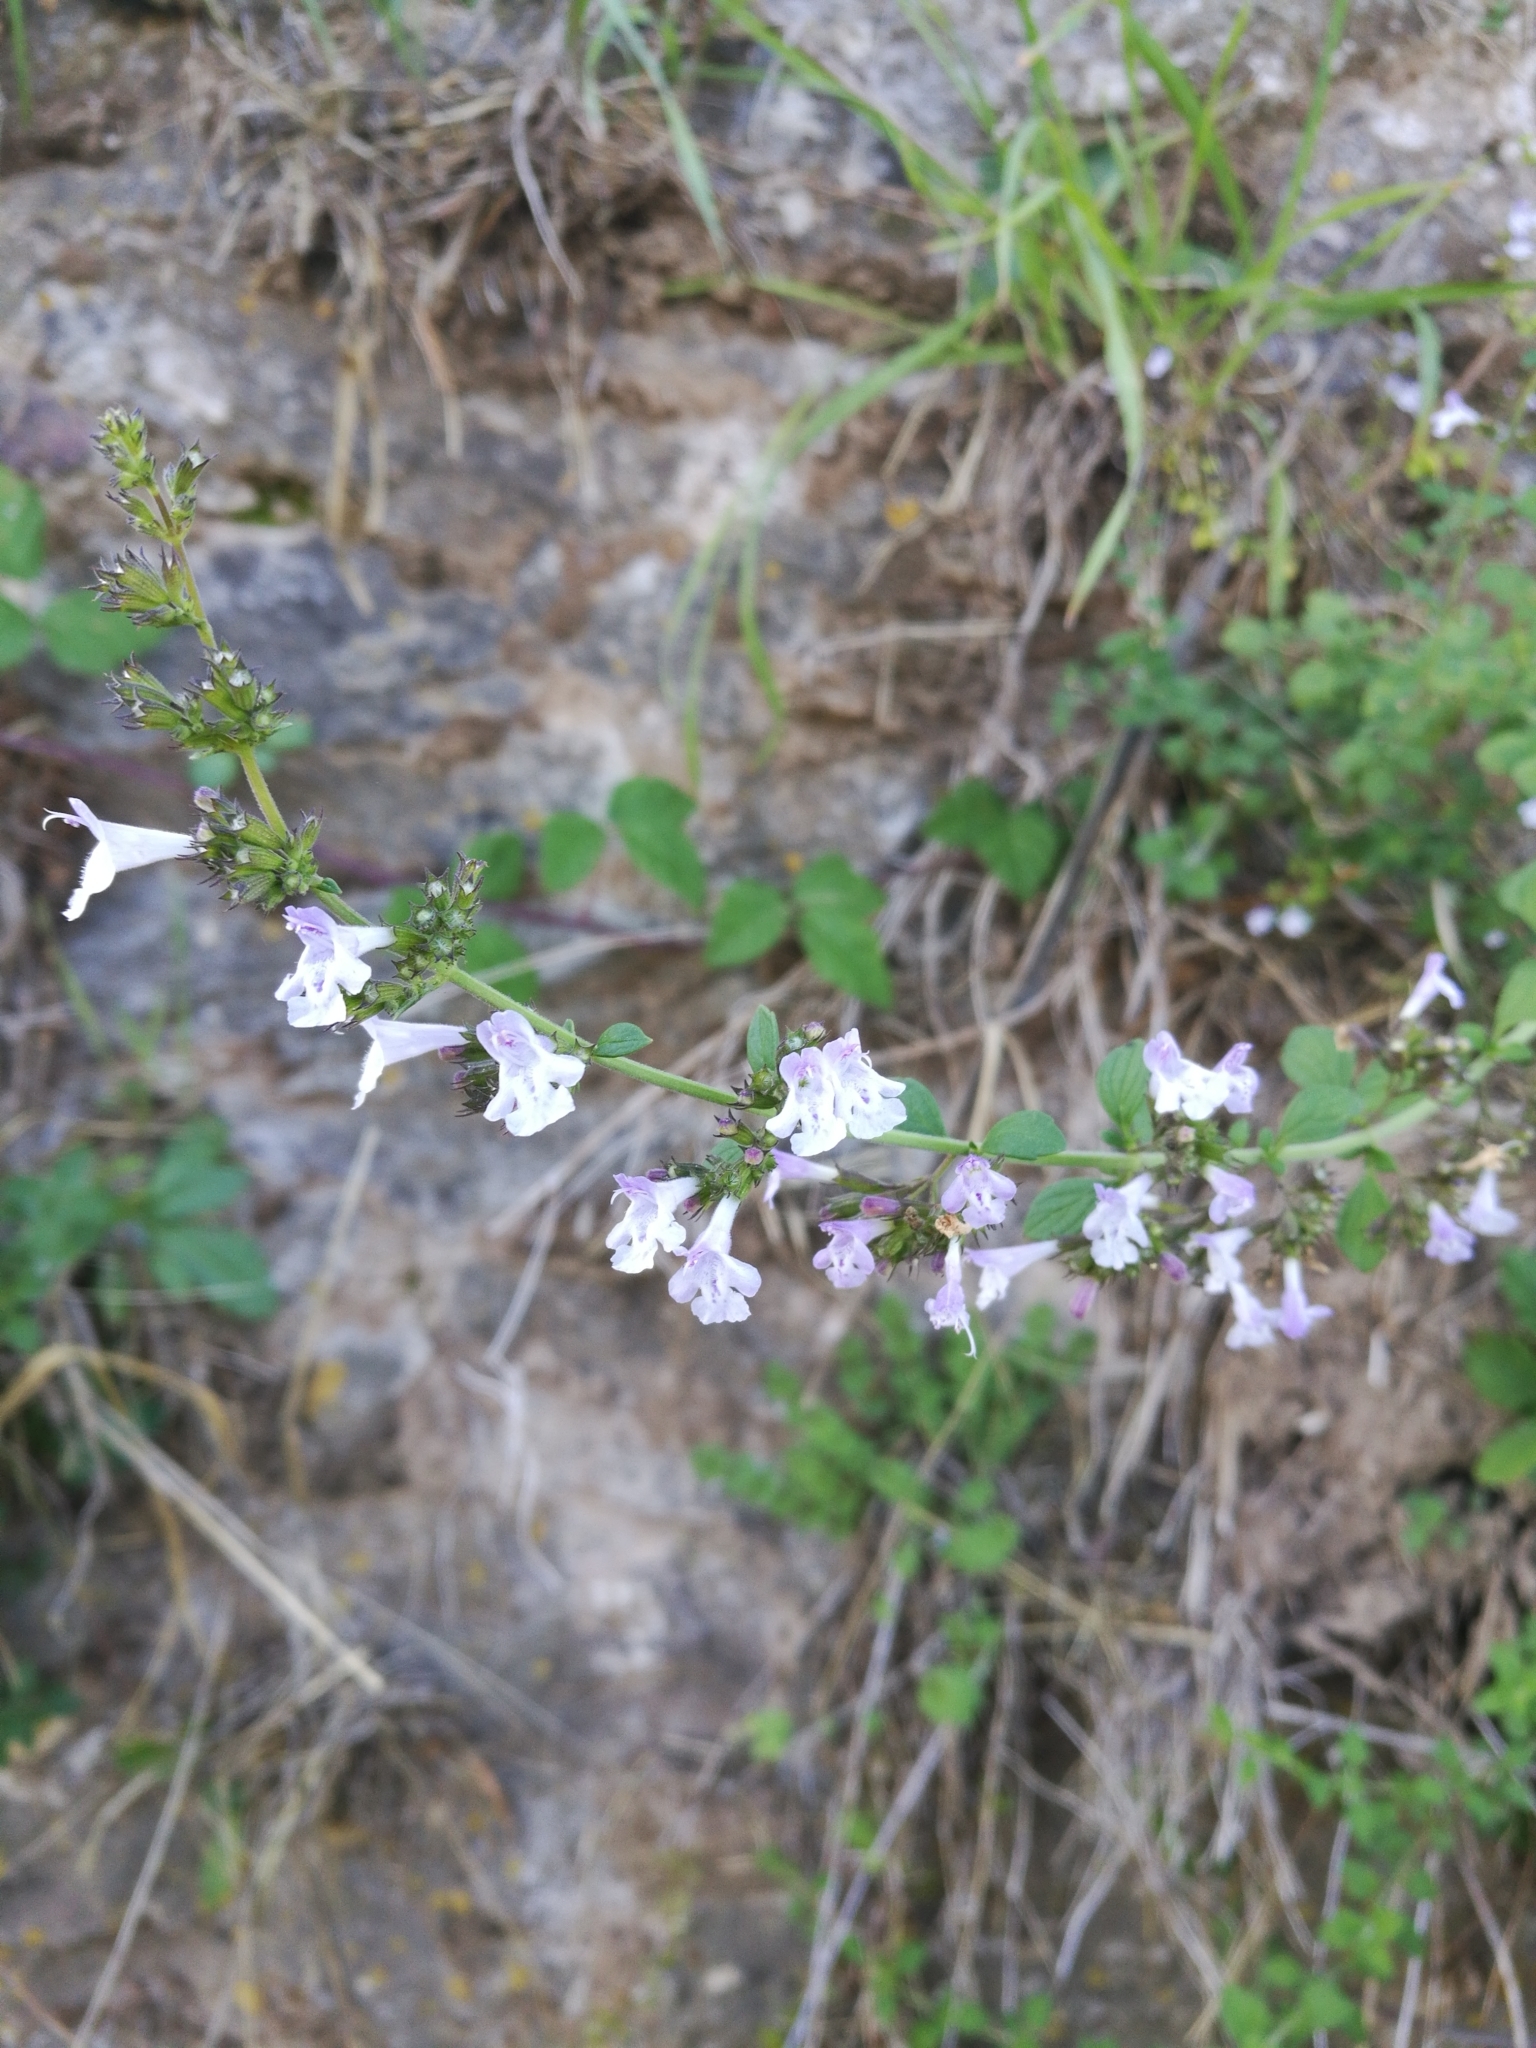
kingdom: Plantae
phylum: Tracheophyta
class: Magnoliopsida
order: Lamiales
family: Lamiaceae
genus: Clinopodium
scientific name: Clinopodium nepeta
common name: Lesser calamint
